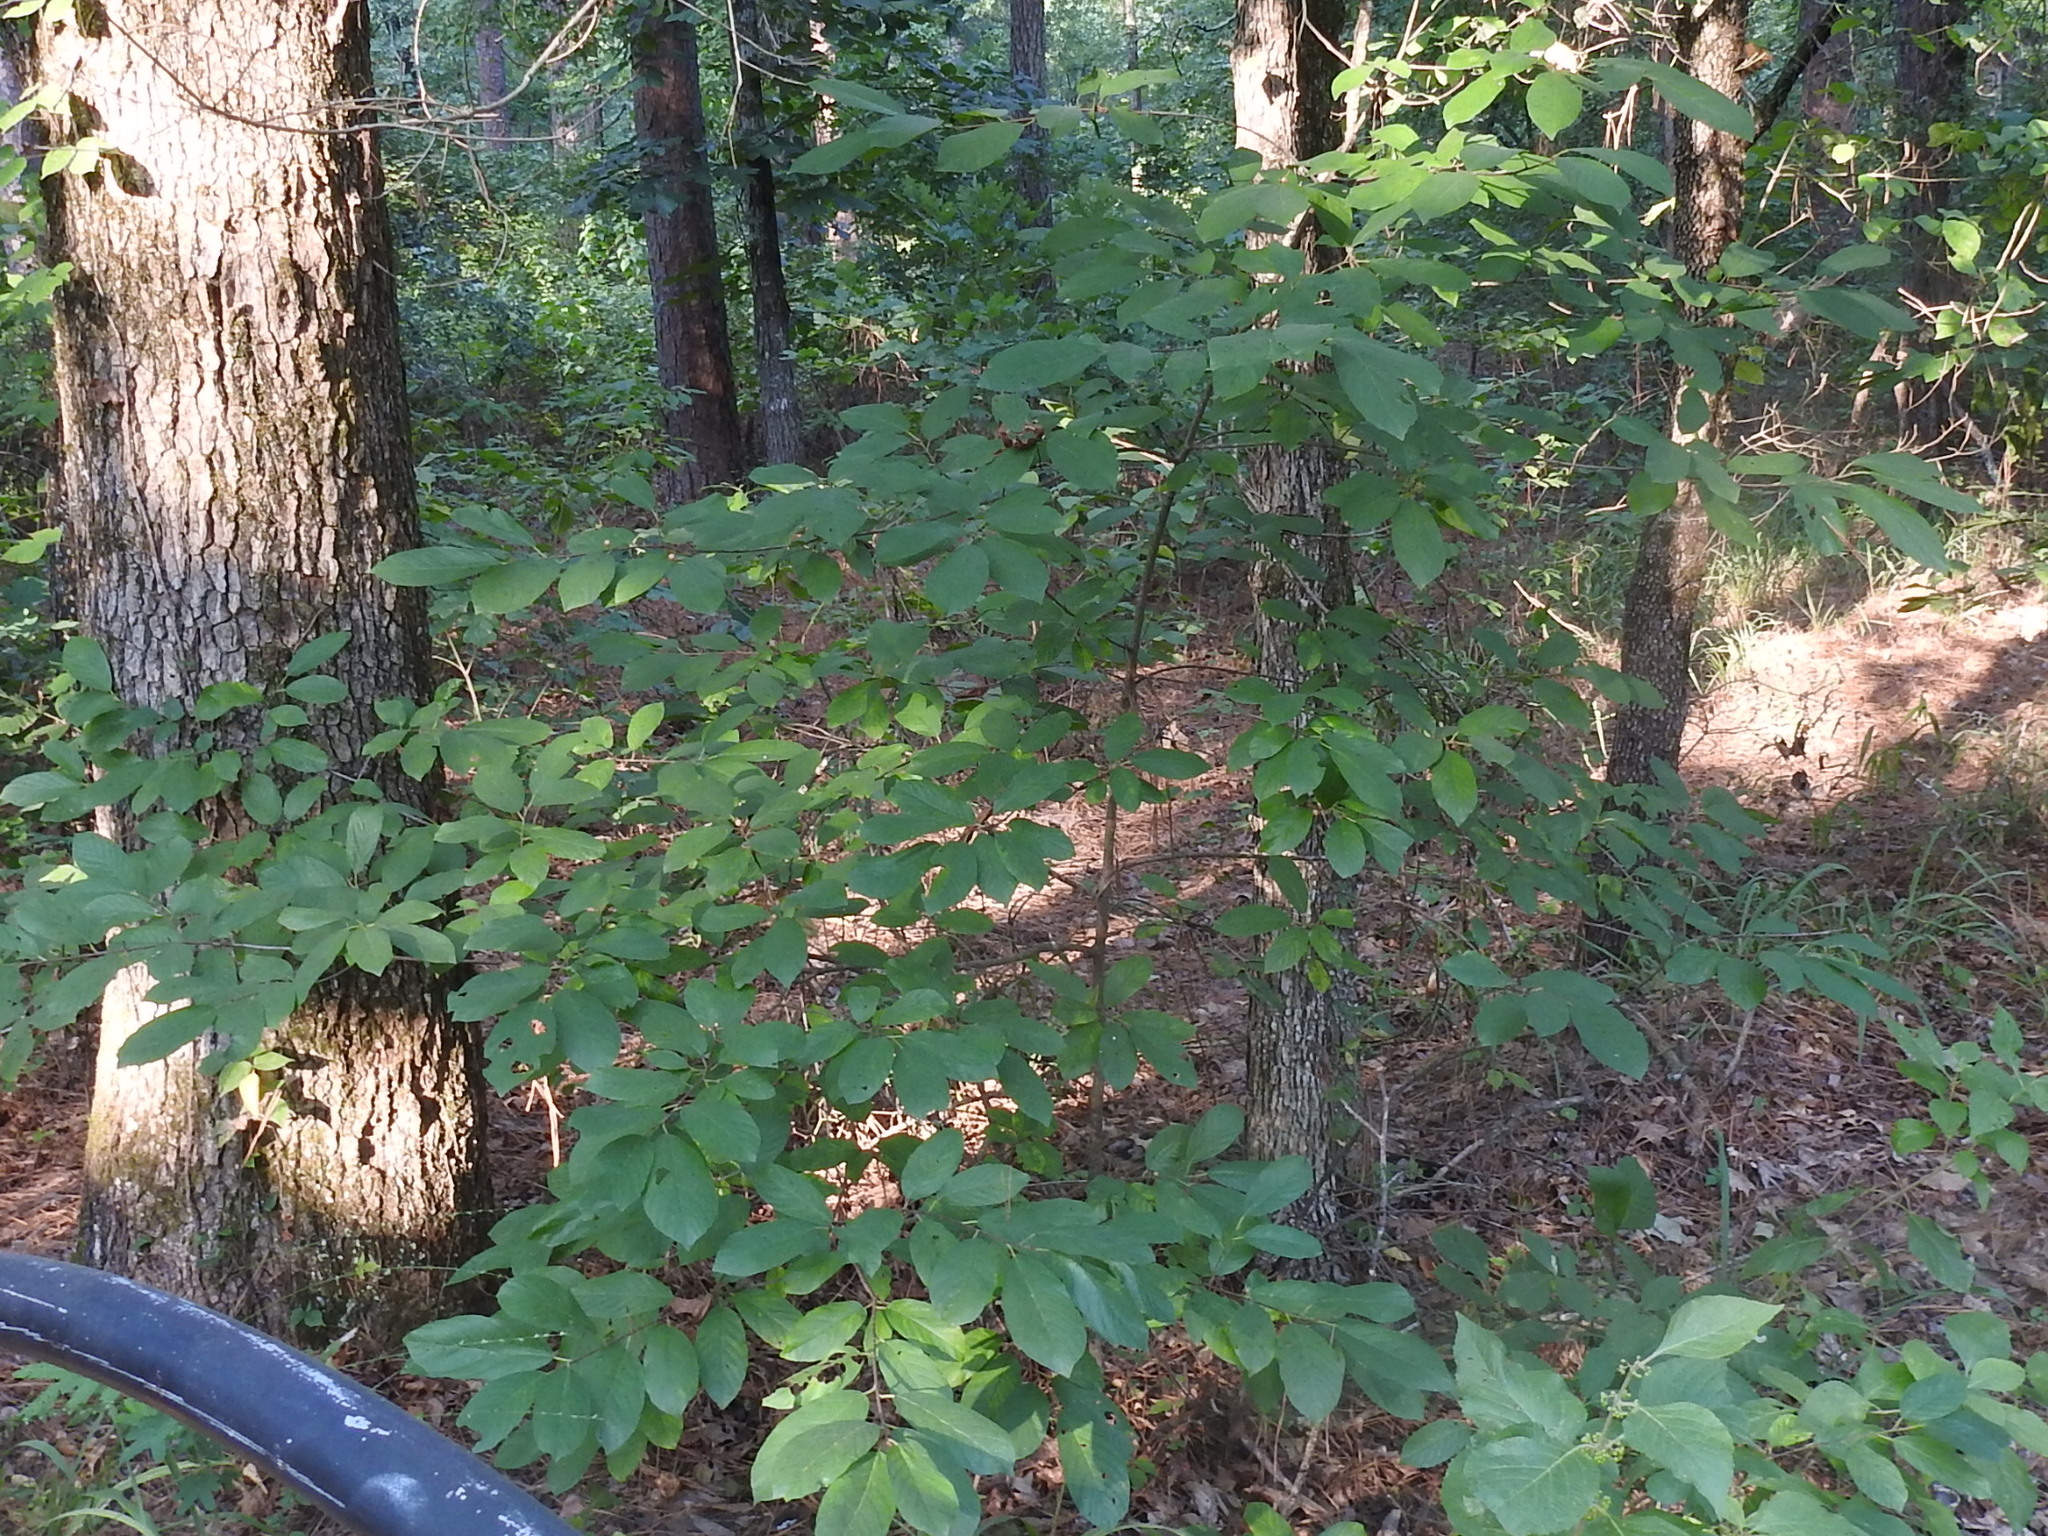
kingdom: Plantae
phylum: Tracheophyta
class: Magnoliopsida
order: Rosales
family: Rhamnaceae
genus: Frangula
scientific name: Frangula caroliniana
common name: Carolina buckthorn
